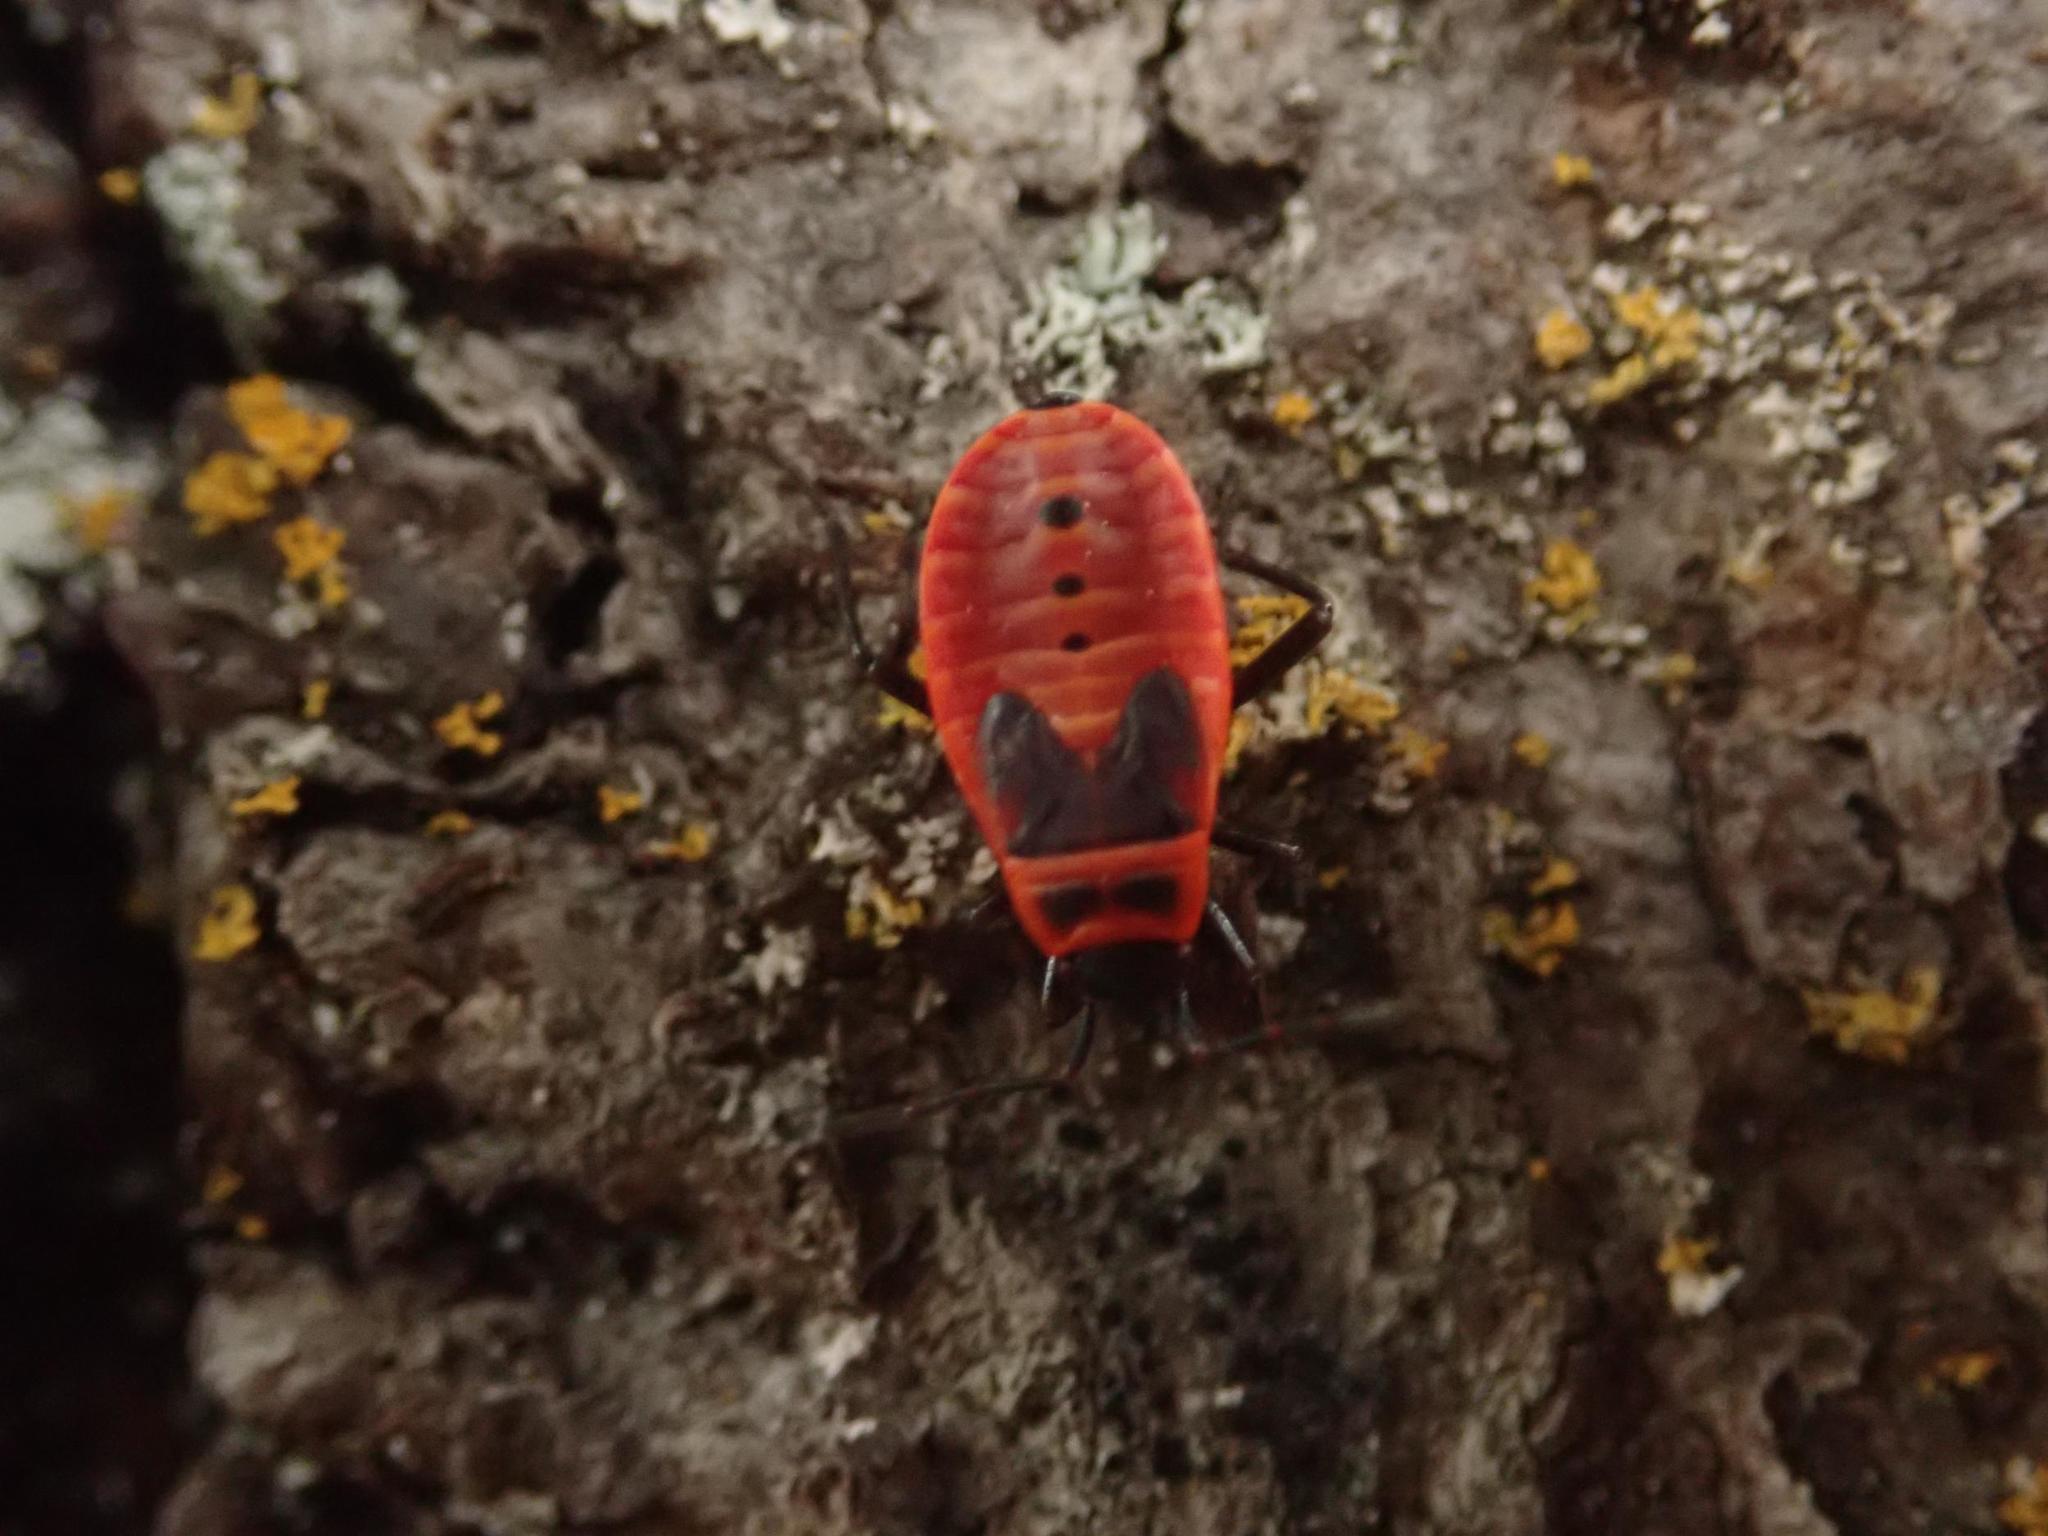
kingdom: Animalia
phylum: Arthropoda
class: Insecta
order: Hemiptera
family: Pyrrhocoridae
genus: Pyrrhocoris
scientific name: Pyrrhocoris apterus
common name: Firebug
